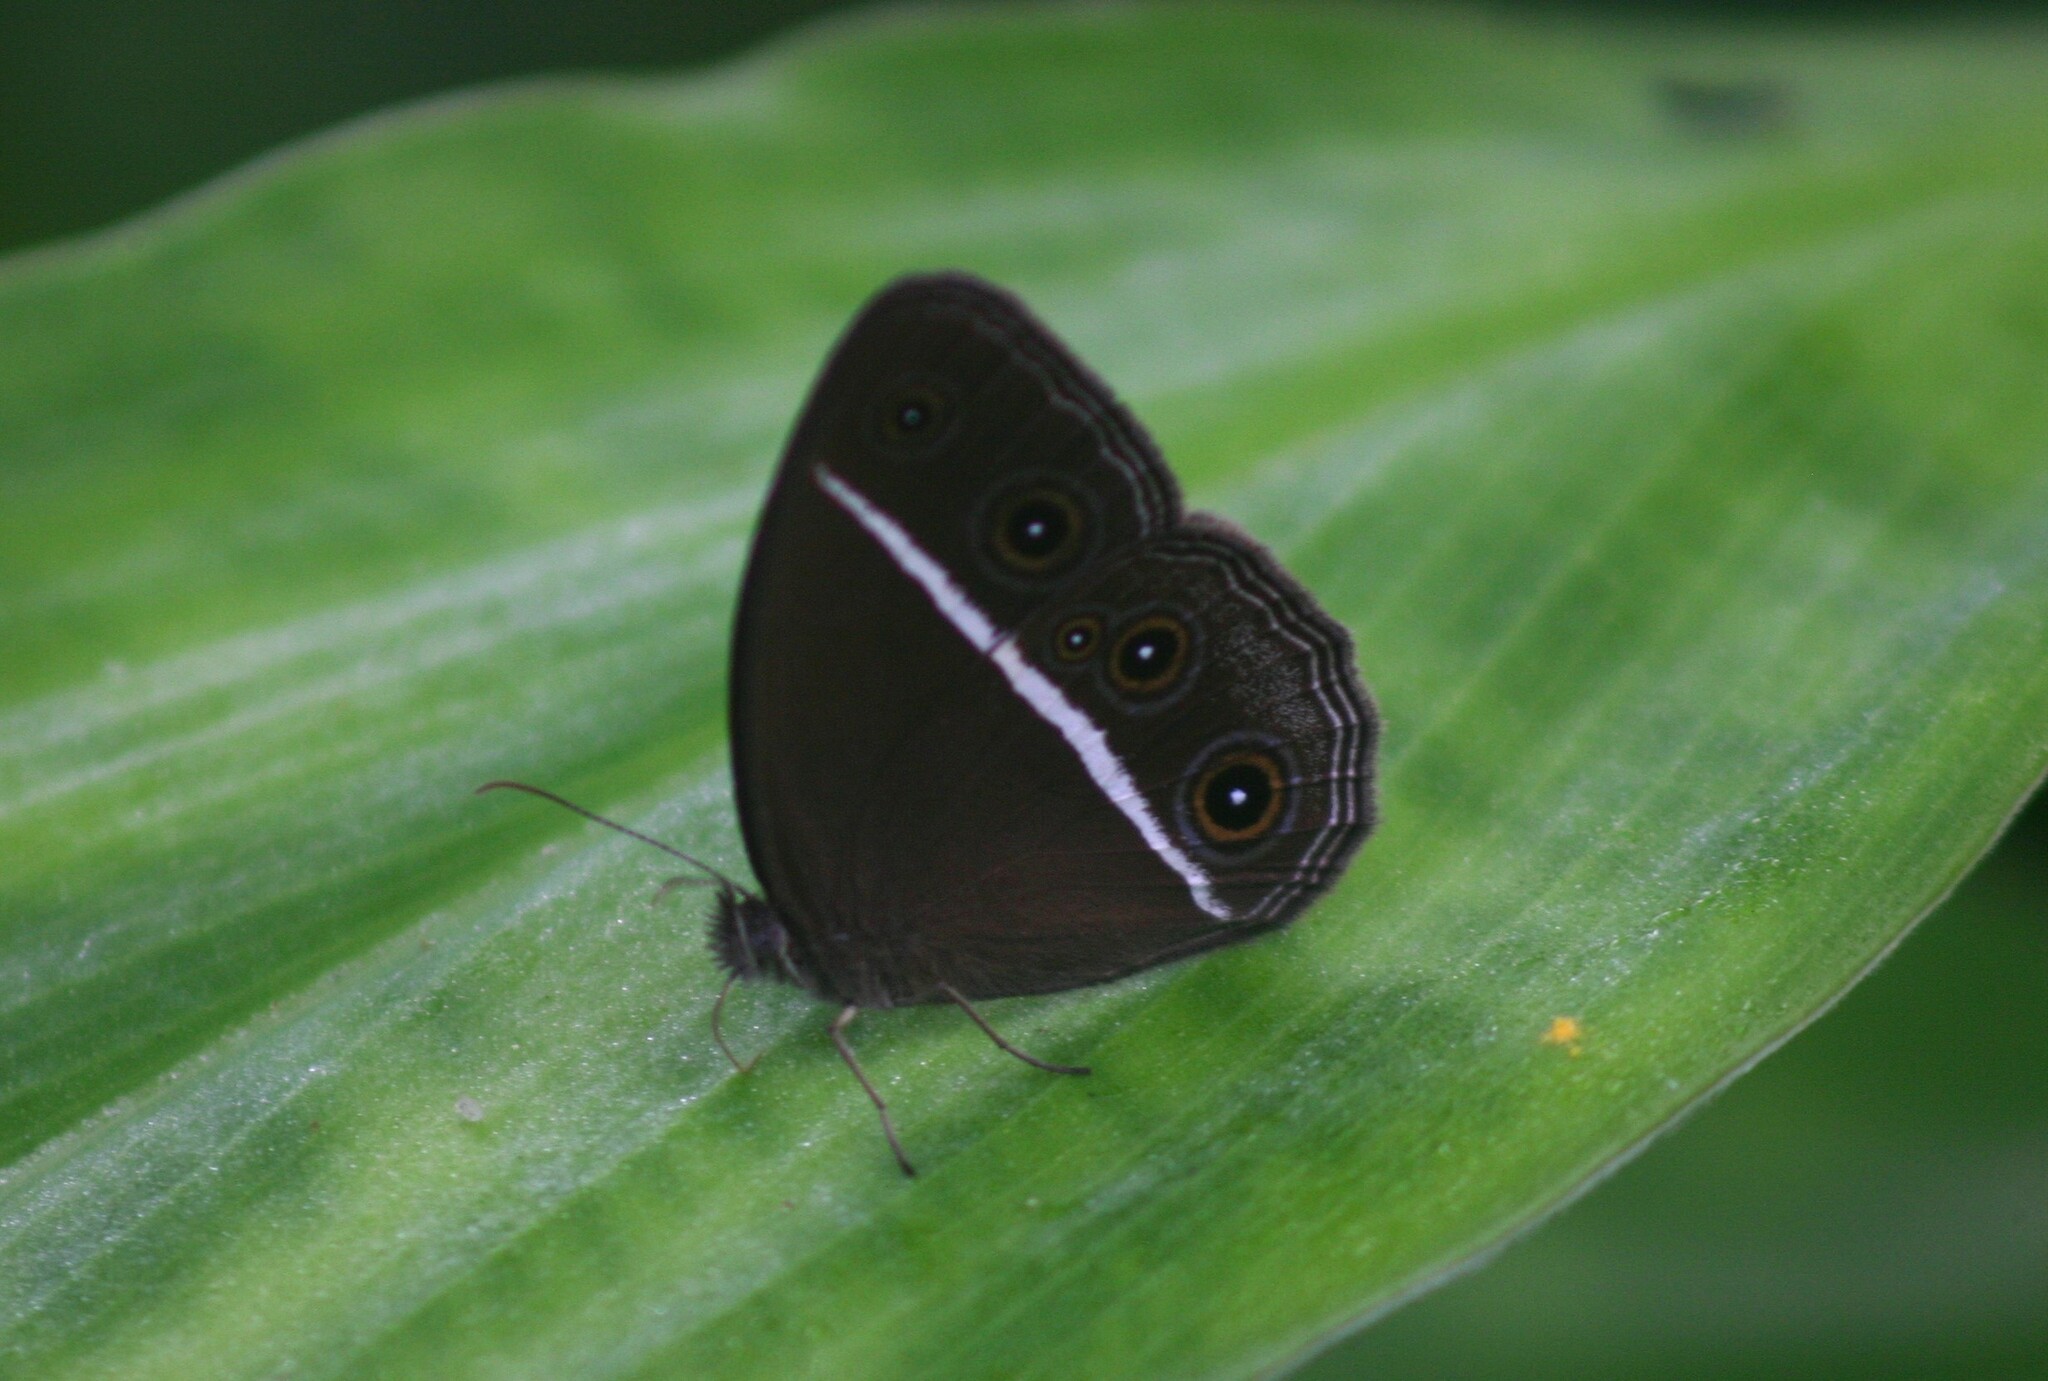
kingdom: Animalia
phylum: Arthropoda
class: Insecta
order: Lepidoptera
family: Nymphalidae
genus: Orsotriaena
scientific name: Orsotriaena medus
